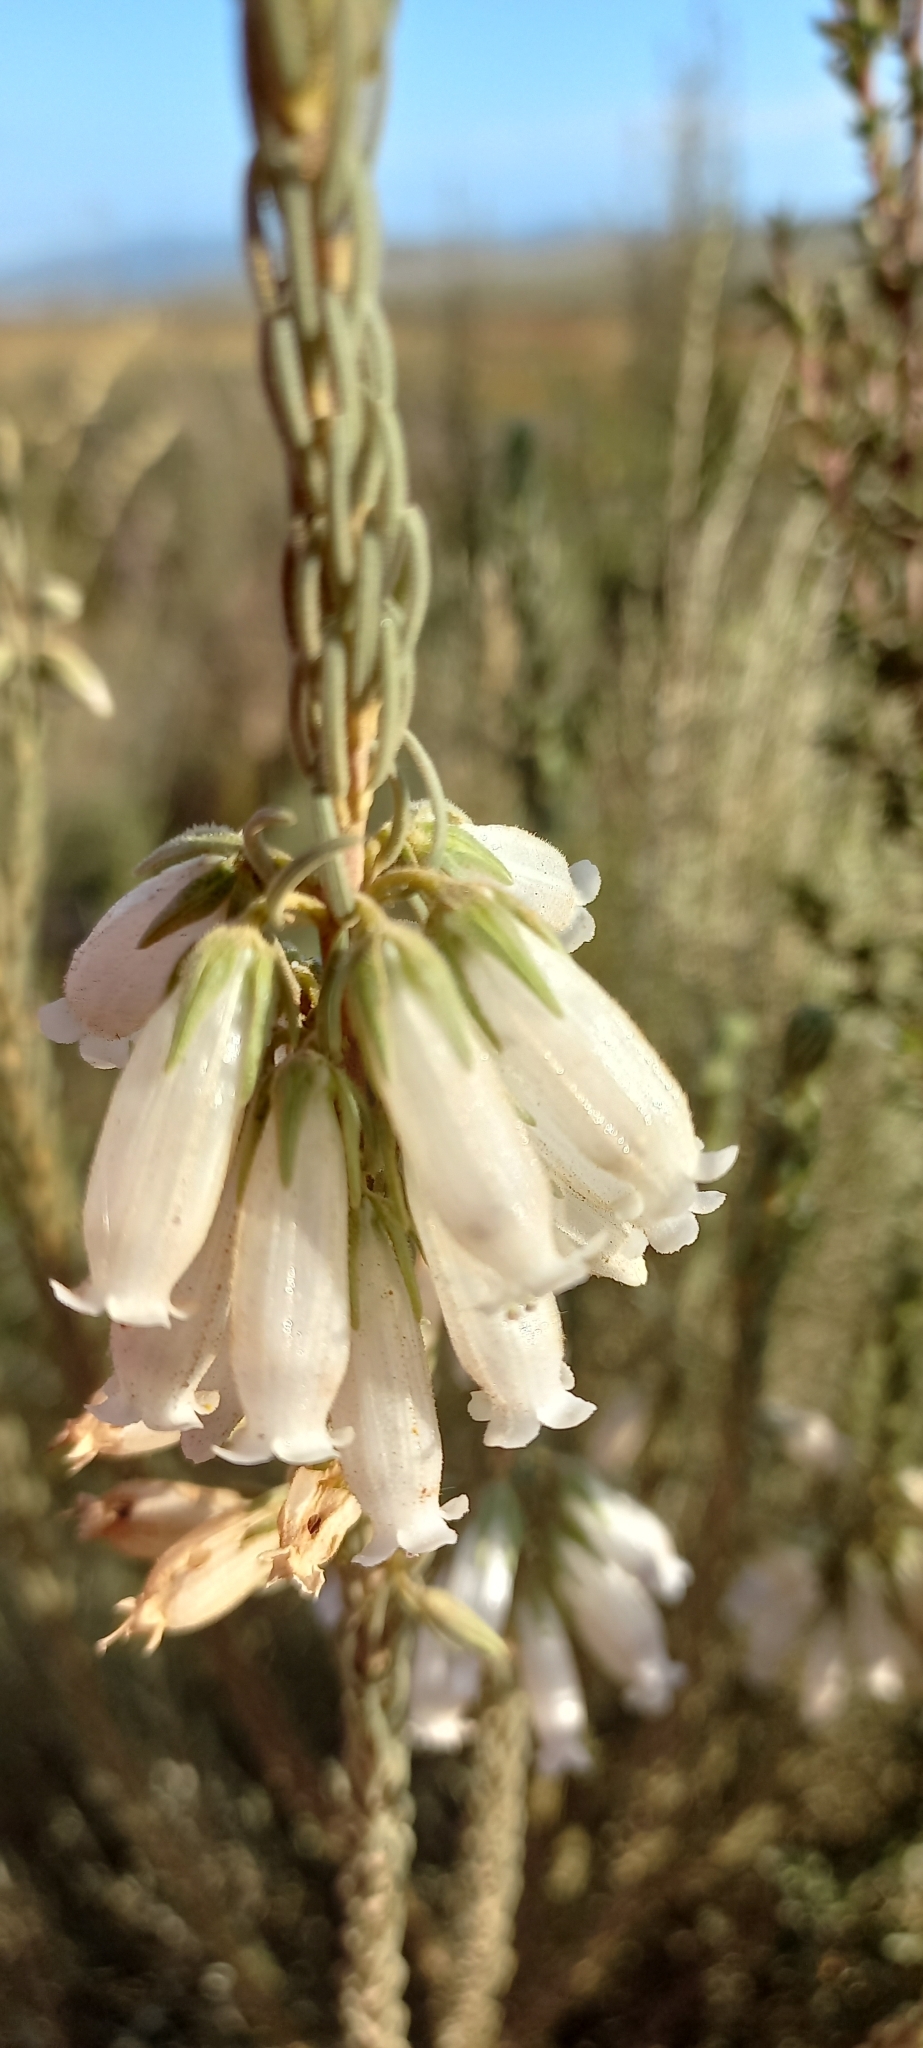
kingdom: Plantae
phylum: Tracheophyta
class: Magnoliopsida
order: Ericales
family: Ericaceae
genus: Erica
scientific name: Erica viscaria
